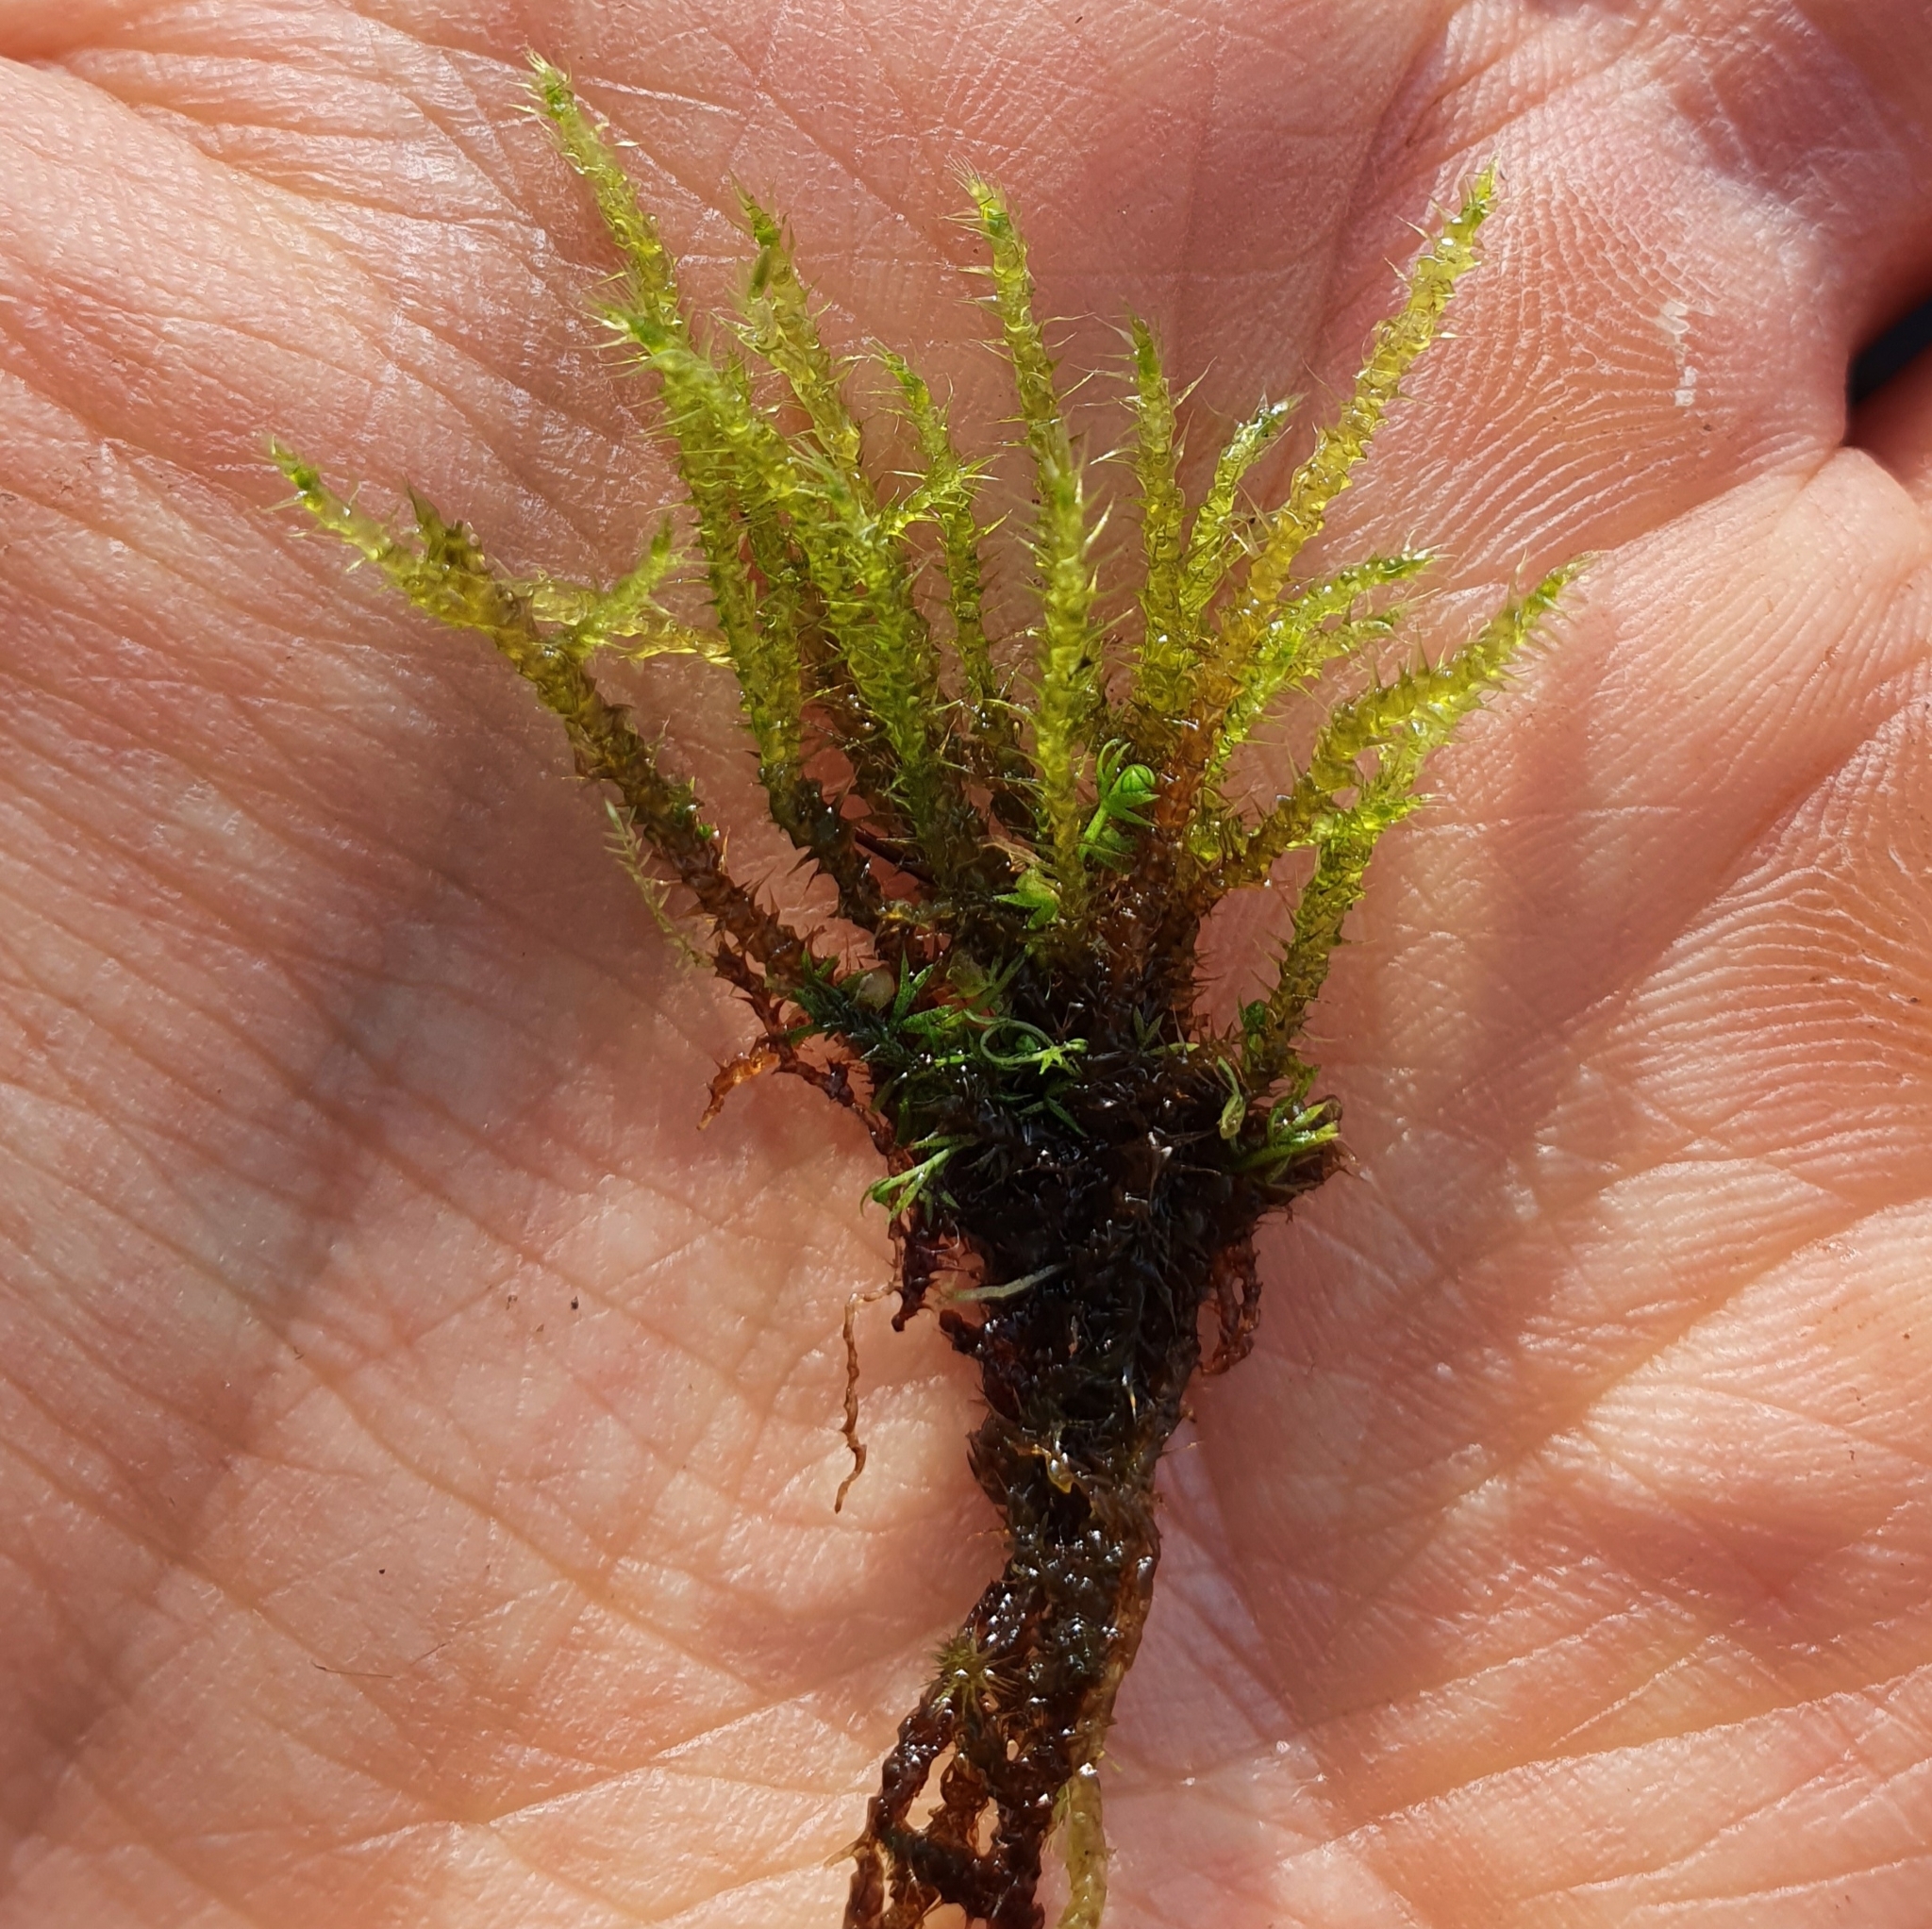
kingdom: Plantae
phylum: Bryophyta
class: Bryopsida
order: Hypnales
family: Amblystegiaceae
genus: Campylium
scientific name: Campylium stellatum
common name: Yellow starry fen moss
